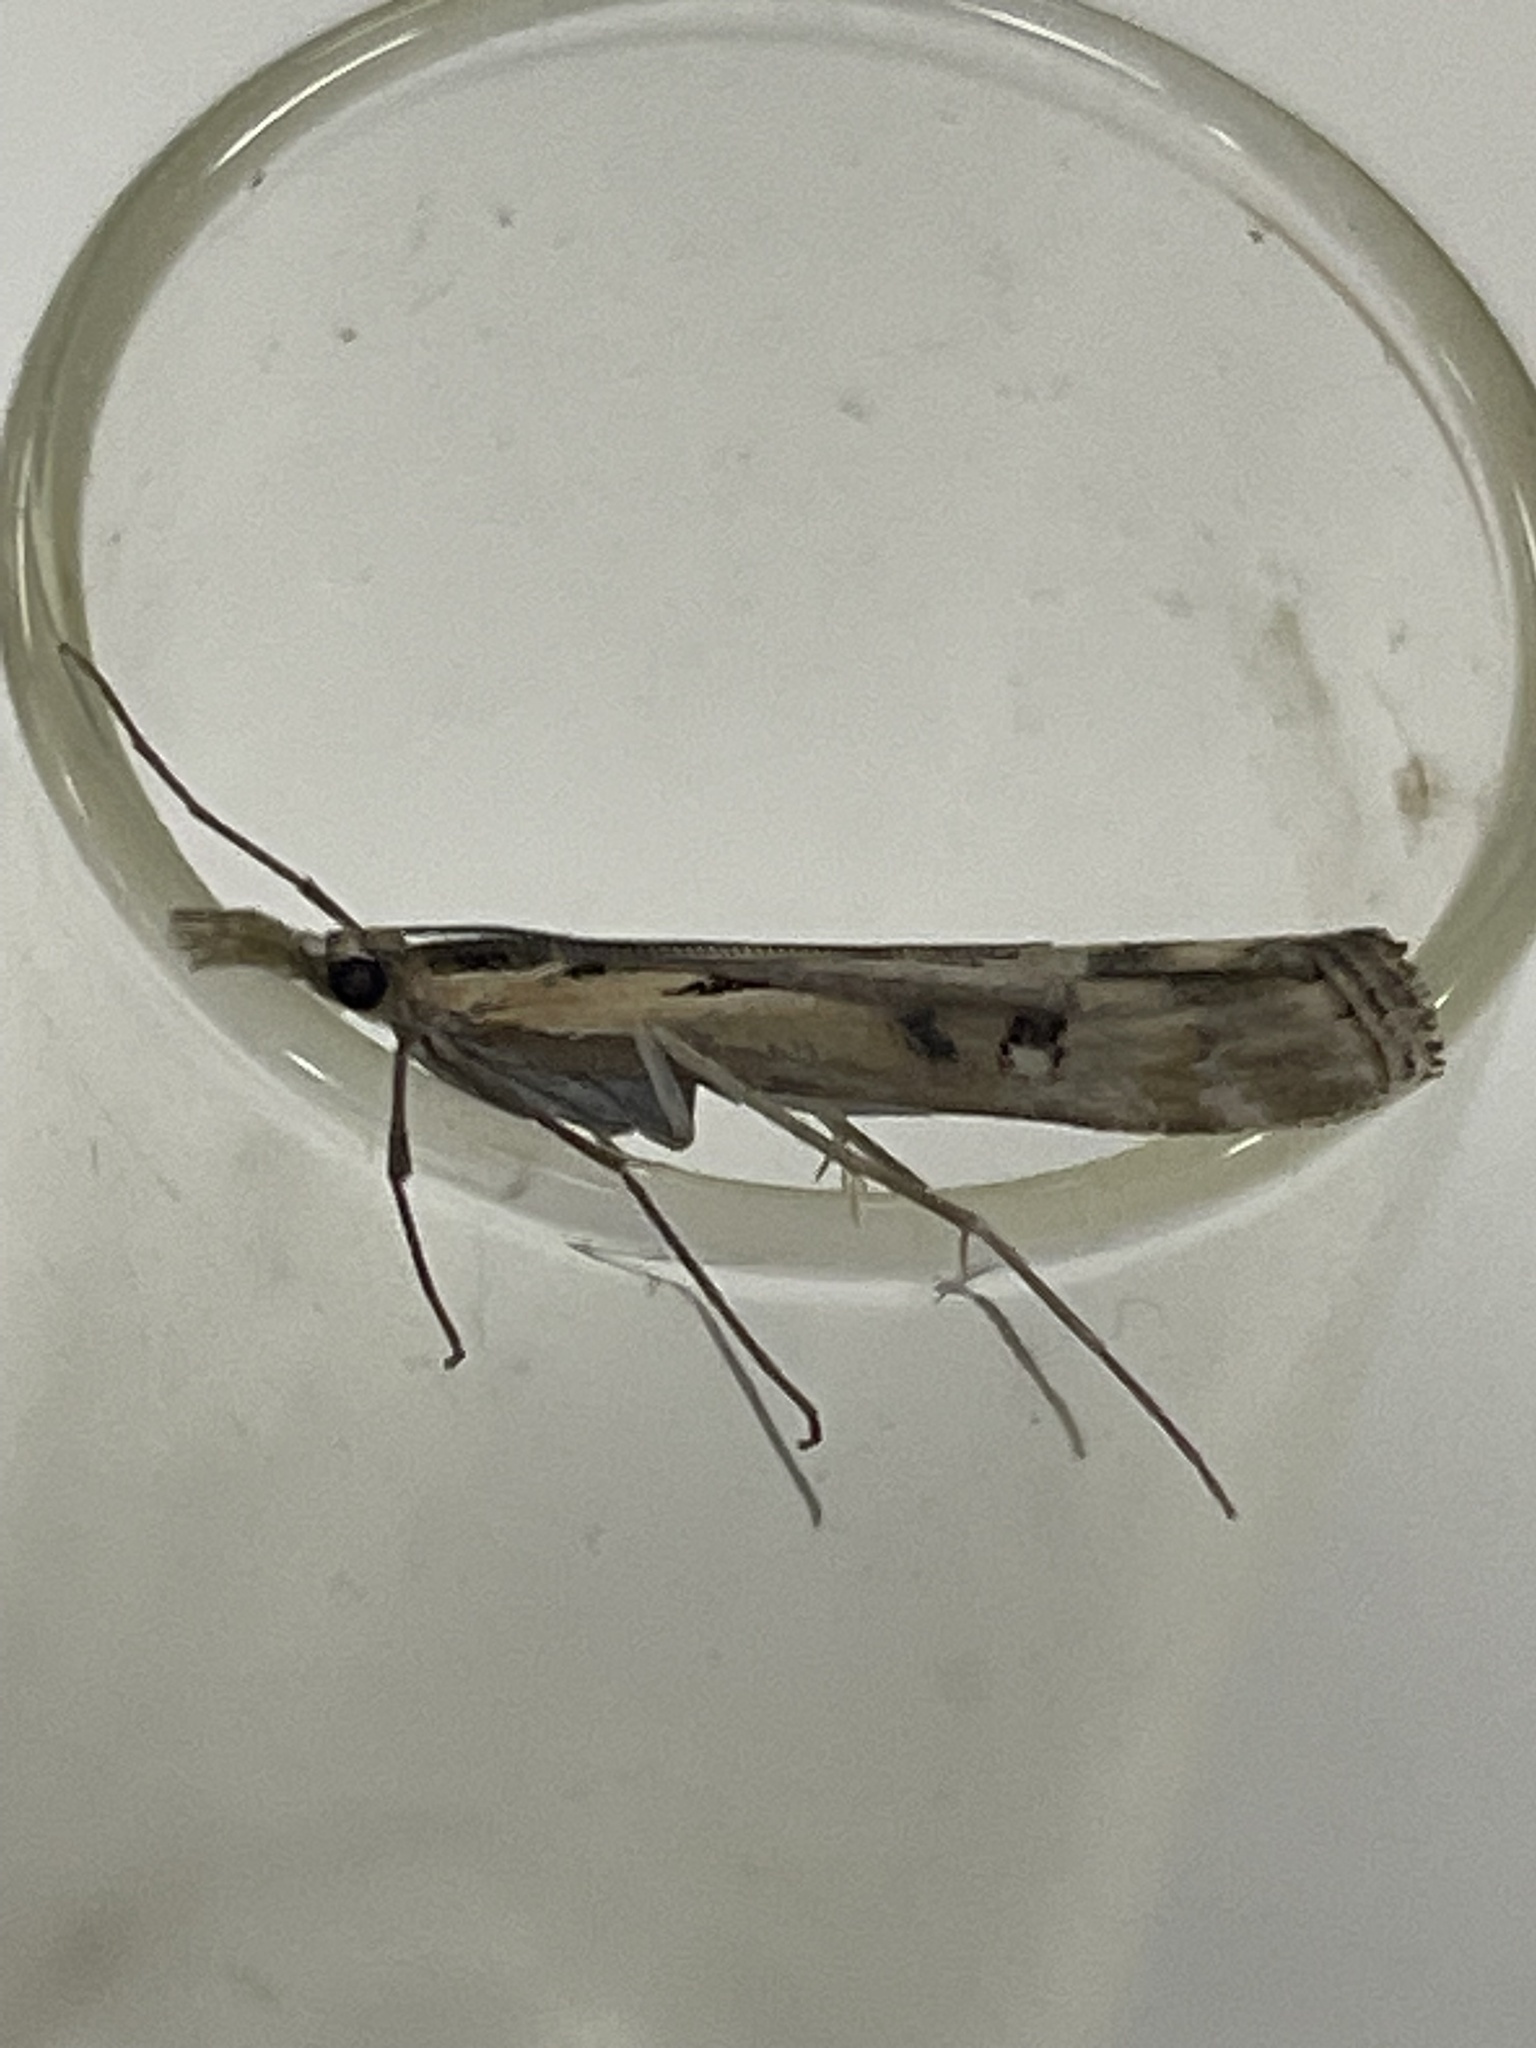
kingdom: Animalia
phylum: Arthropoda
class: Insecta
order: Lepidoptera
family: Crambidae
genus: Hednota
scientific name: Hednota pedionoma
